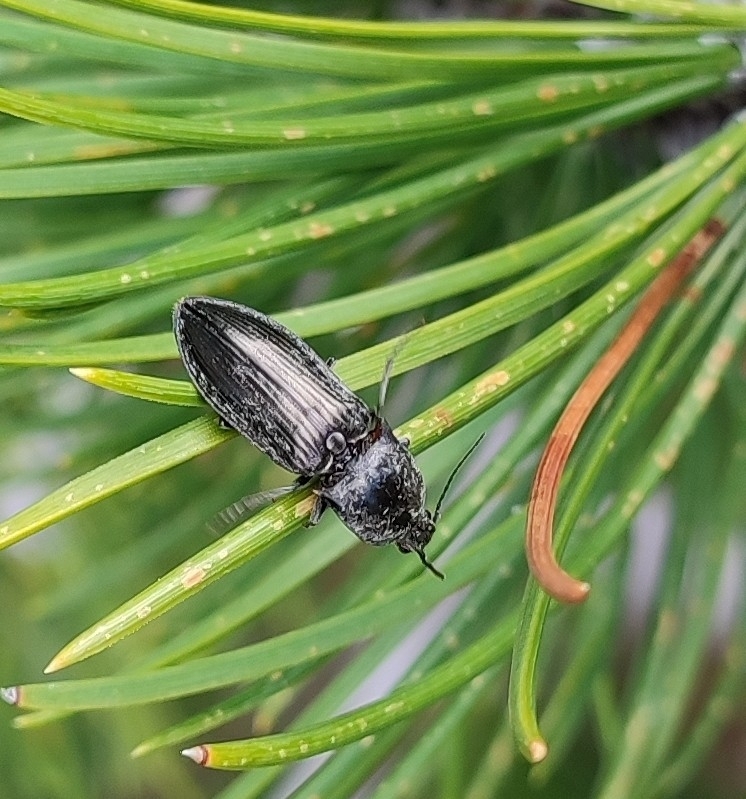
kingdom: Animalia
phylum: Arthropoda
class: Insecta
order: Coleoptera
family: Elateridae
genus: Paraphotistus
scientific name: Paraphotistus impressus
